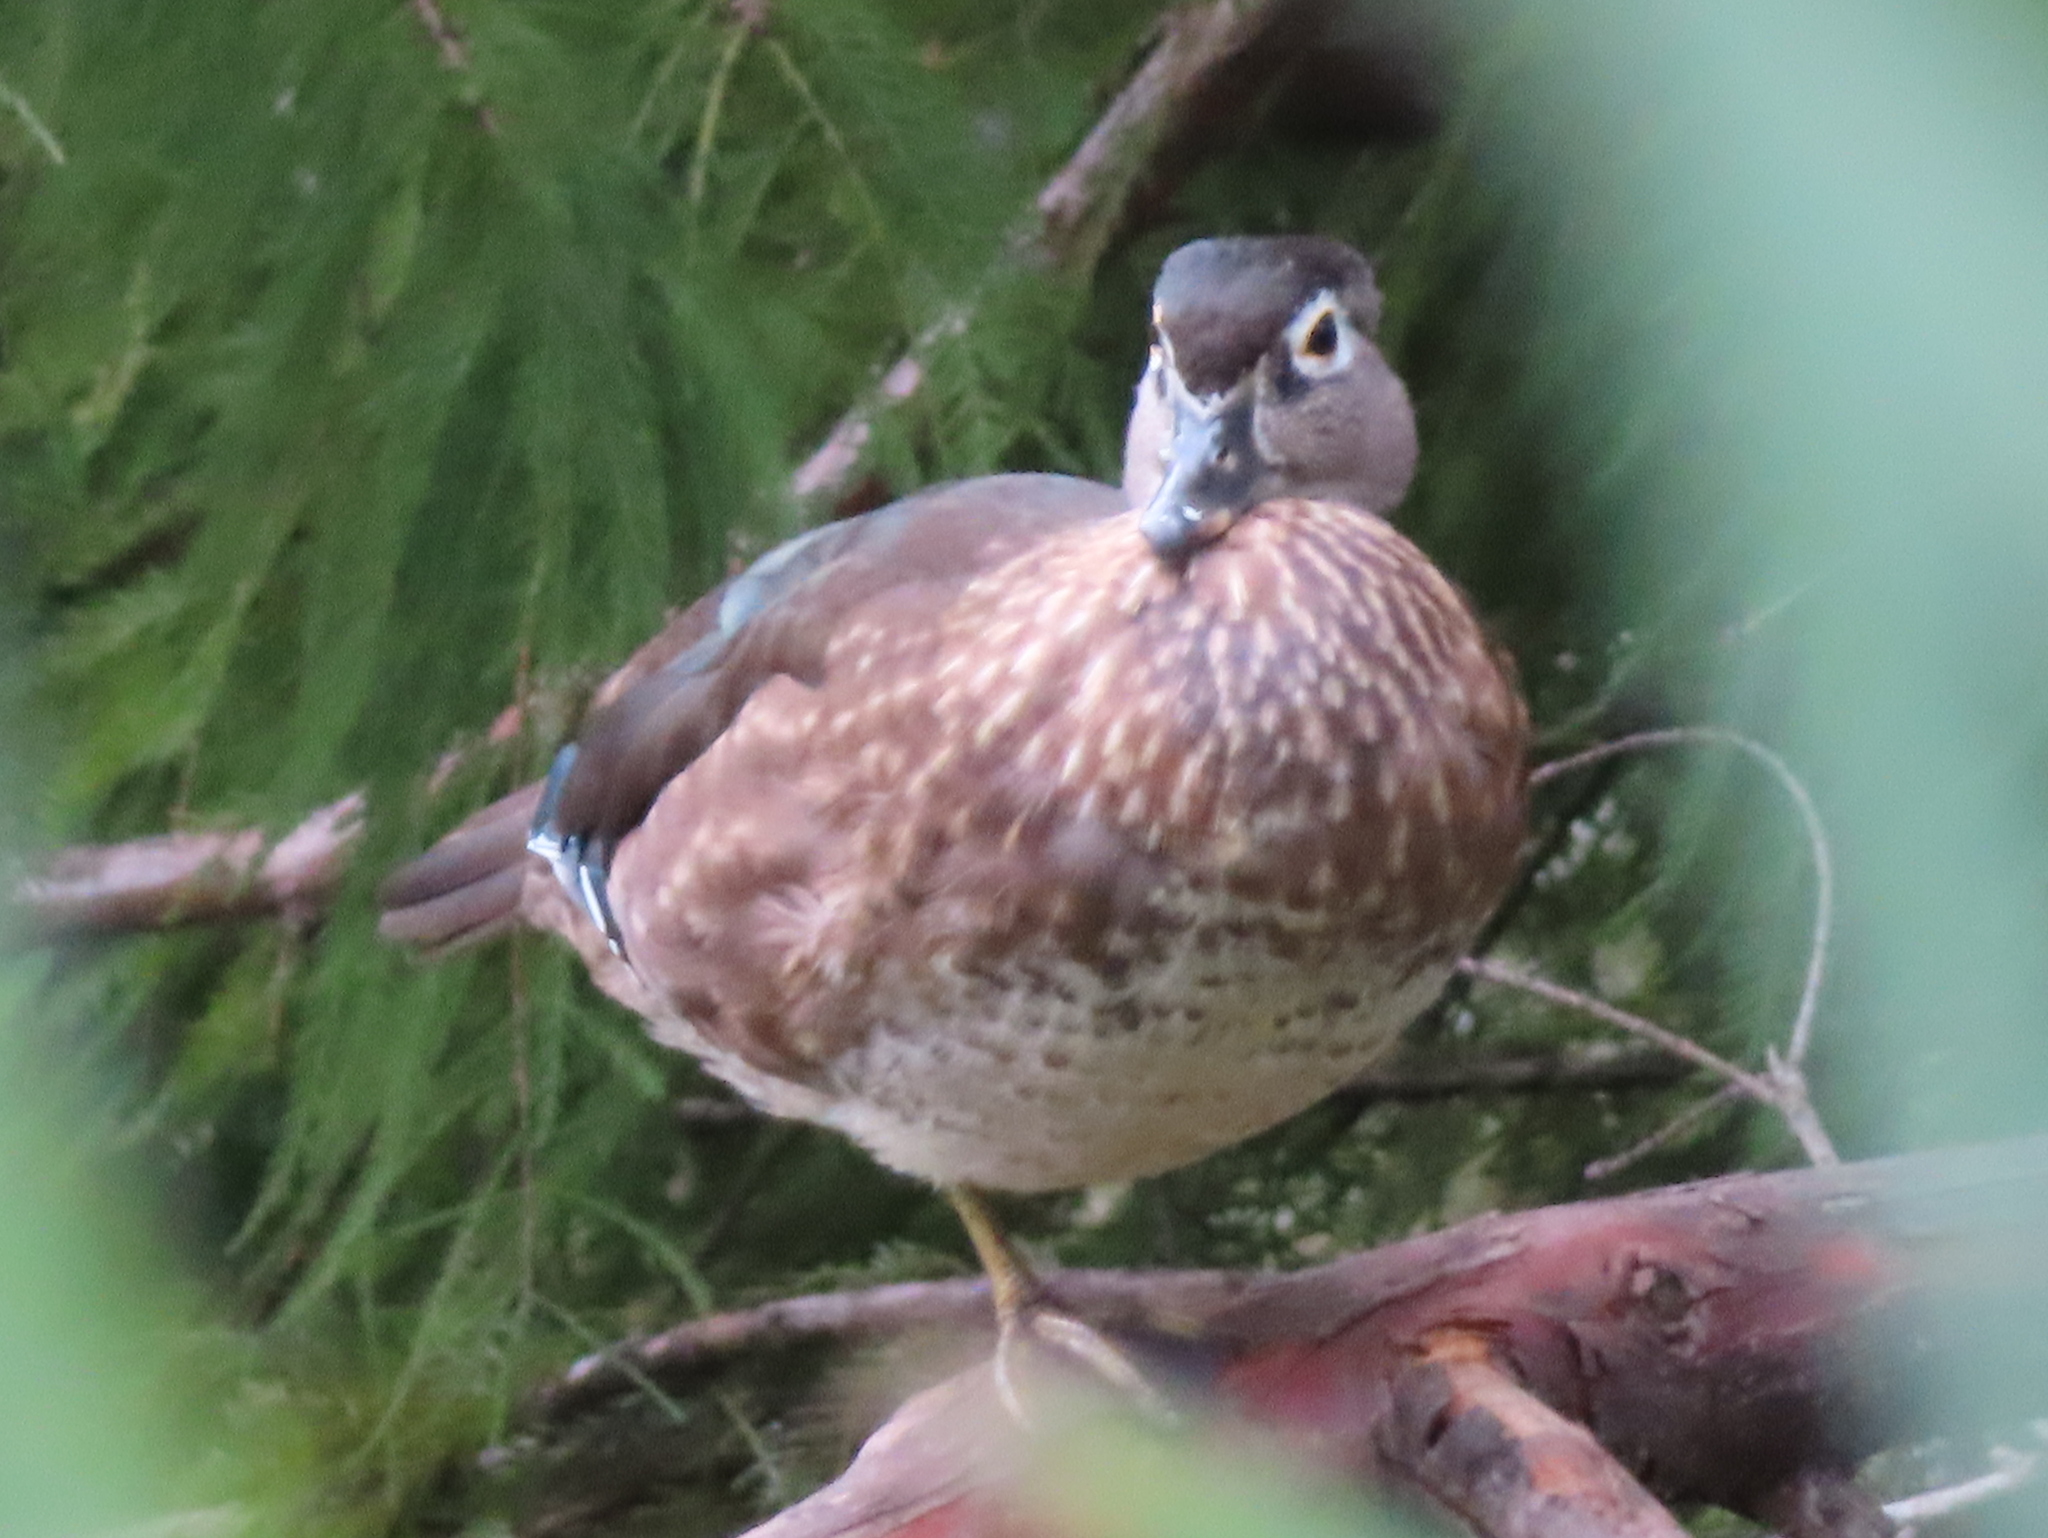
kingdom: Animalia
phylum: Chordata
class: Aves
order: Anseriformes
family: Anatidae
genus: Aix
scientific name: Aix sponsa
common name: Wood duck
